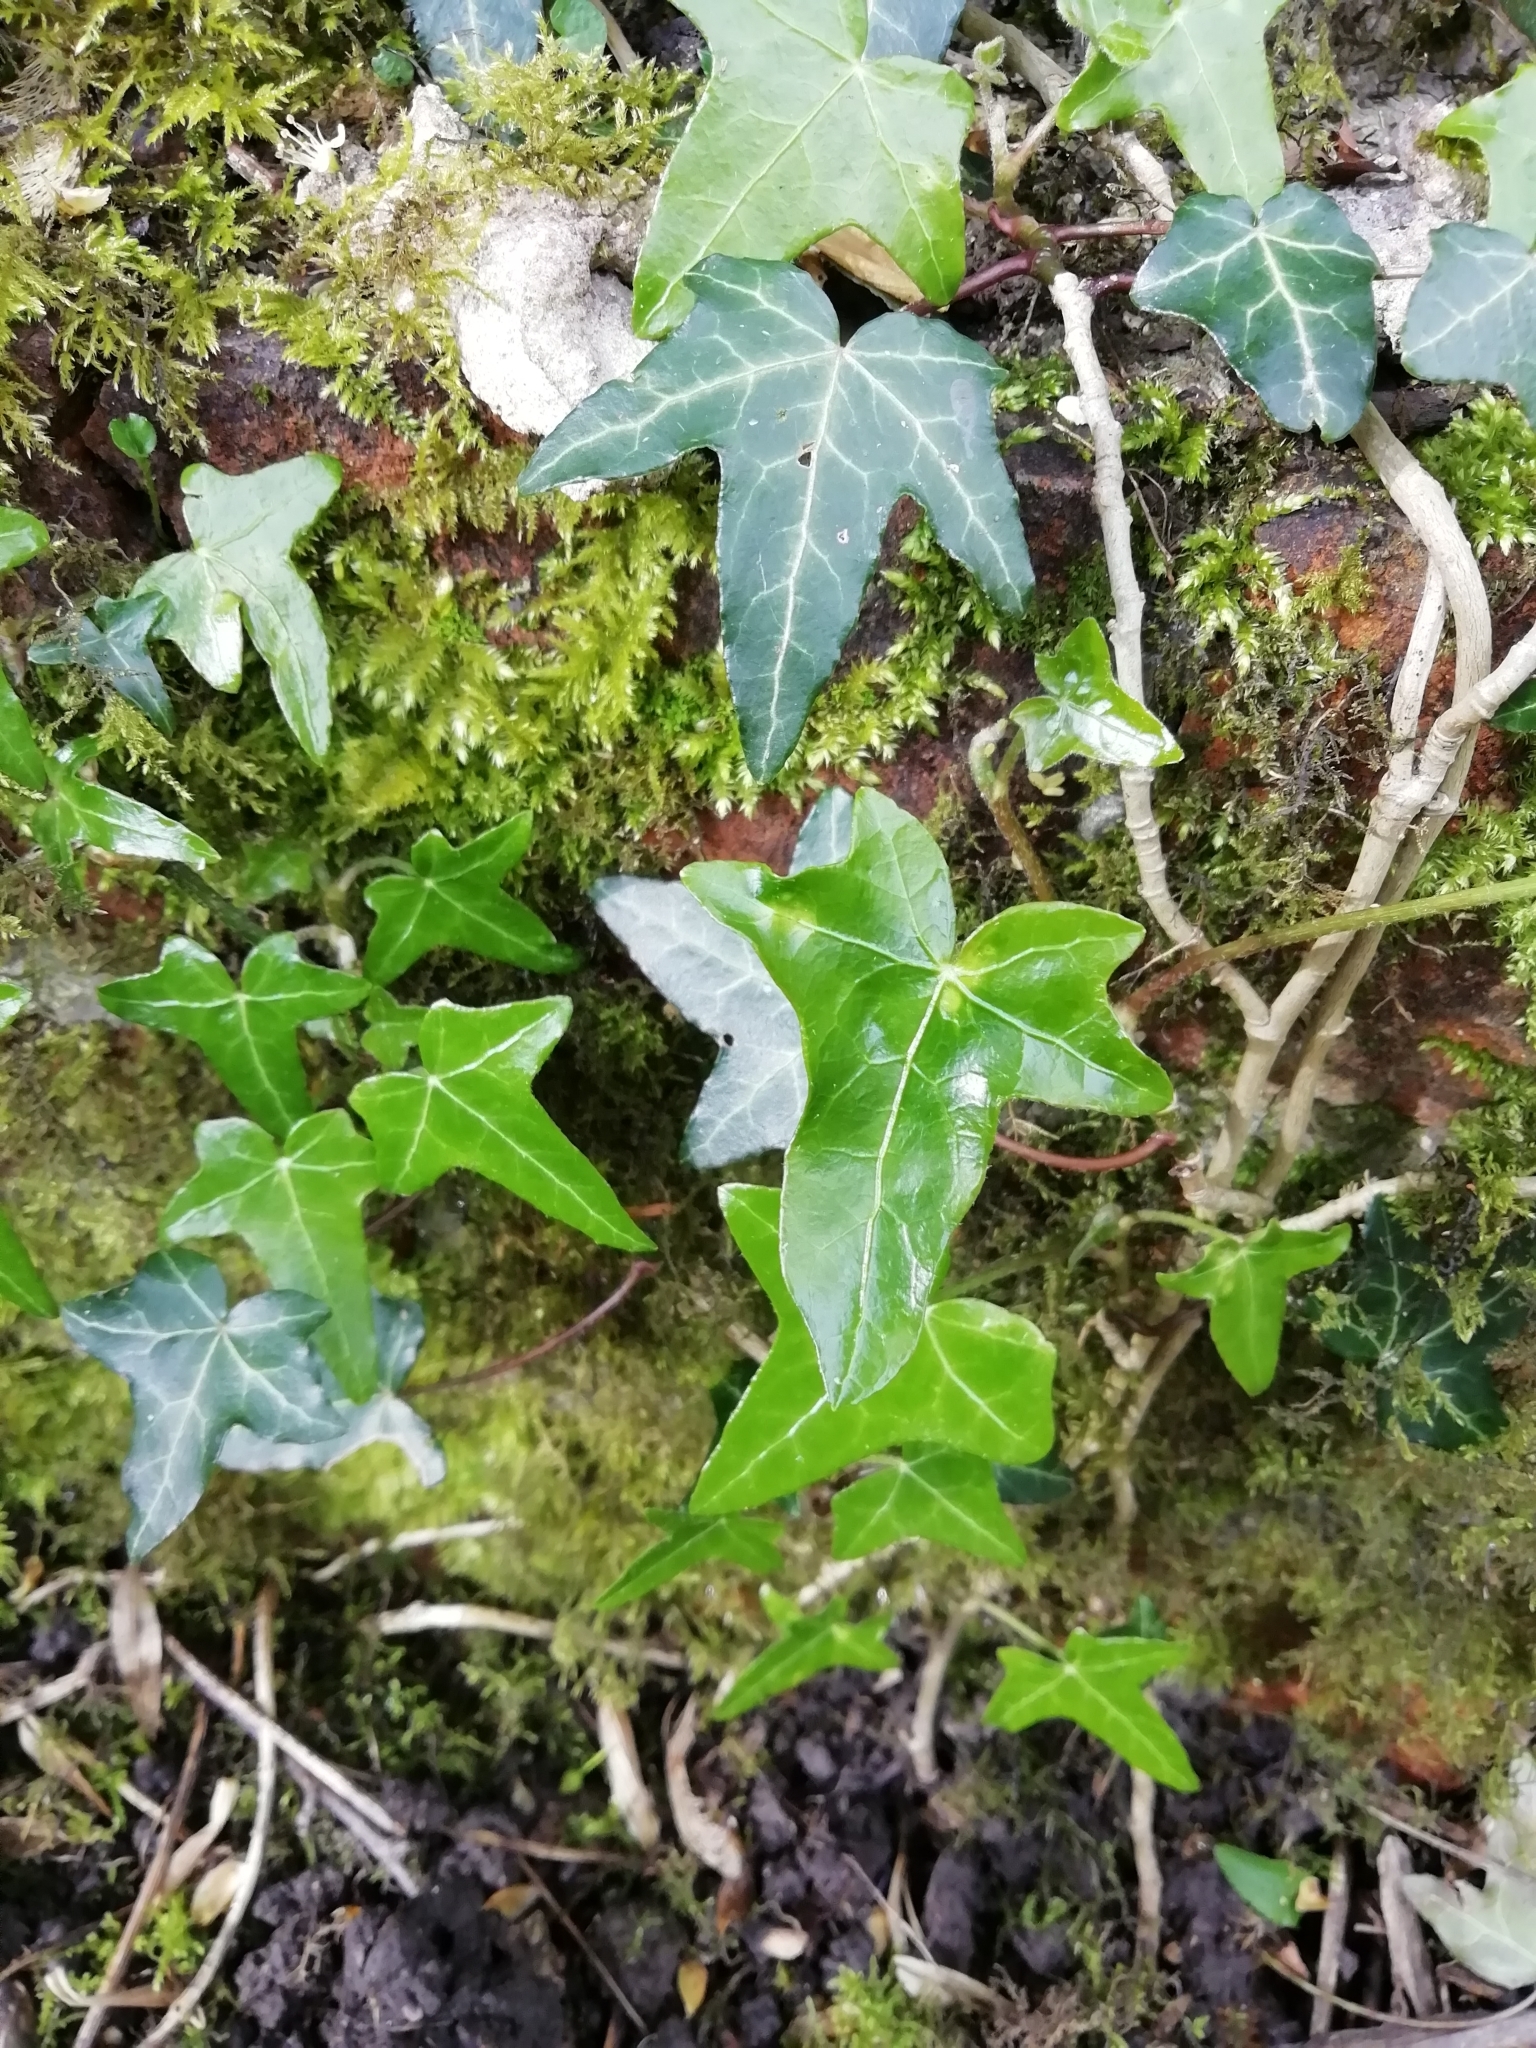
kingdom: Plantae
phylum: Tracheophyta
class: Magnoliopsida
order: Apiales
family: Araliaceae
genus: Hedera
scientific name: Hedera helix
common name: Ivy
